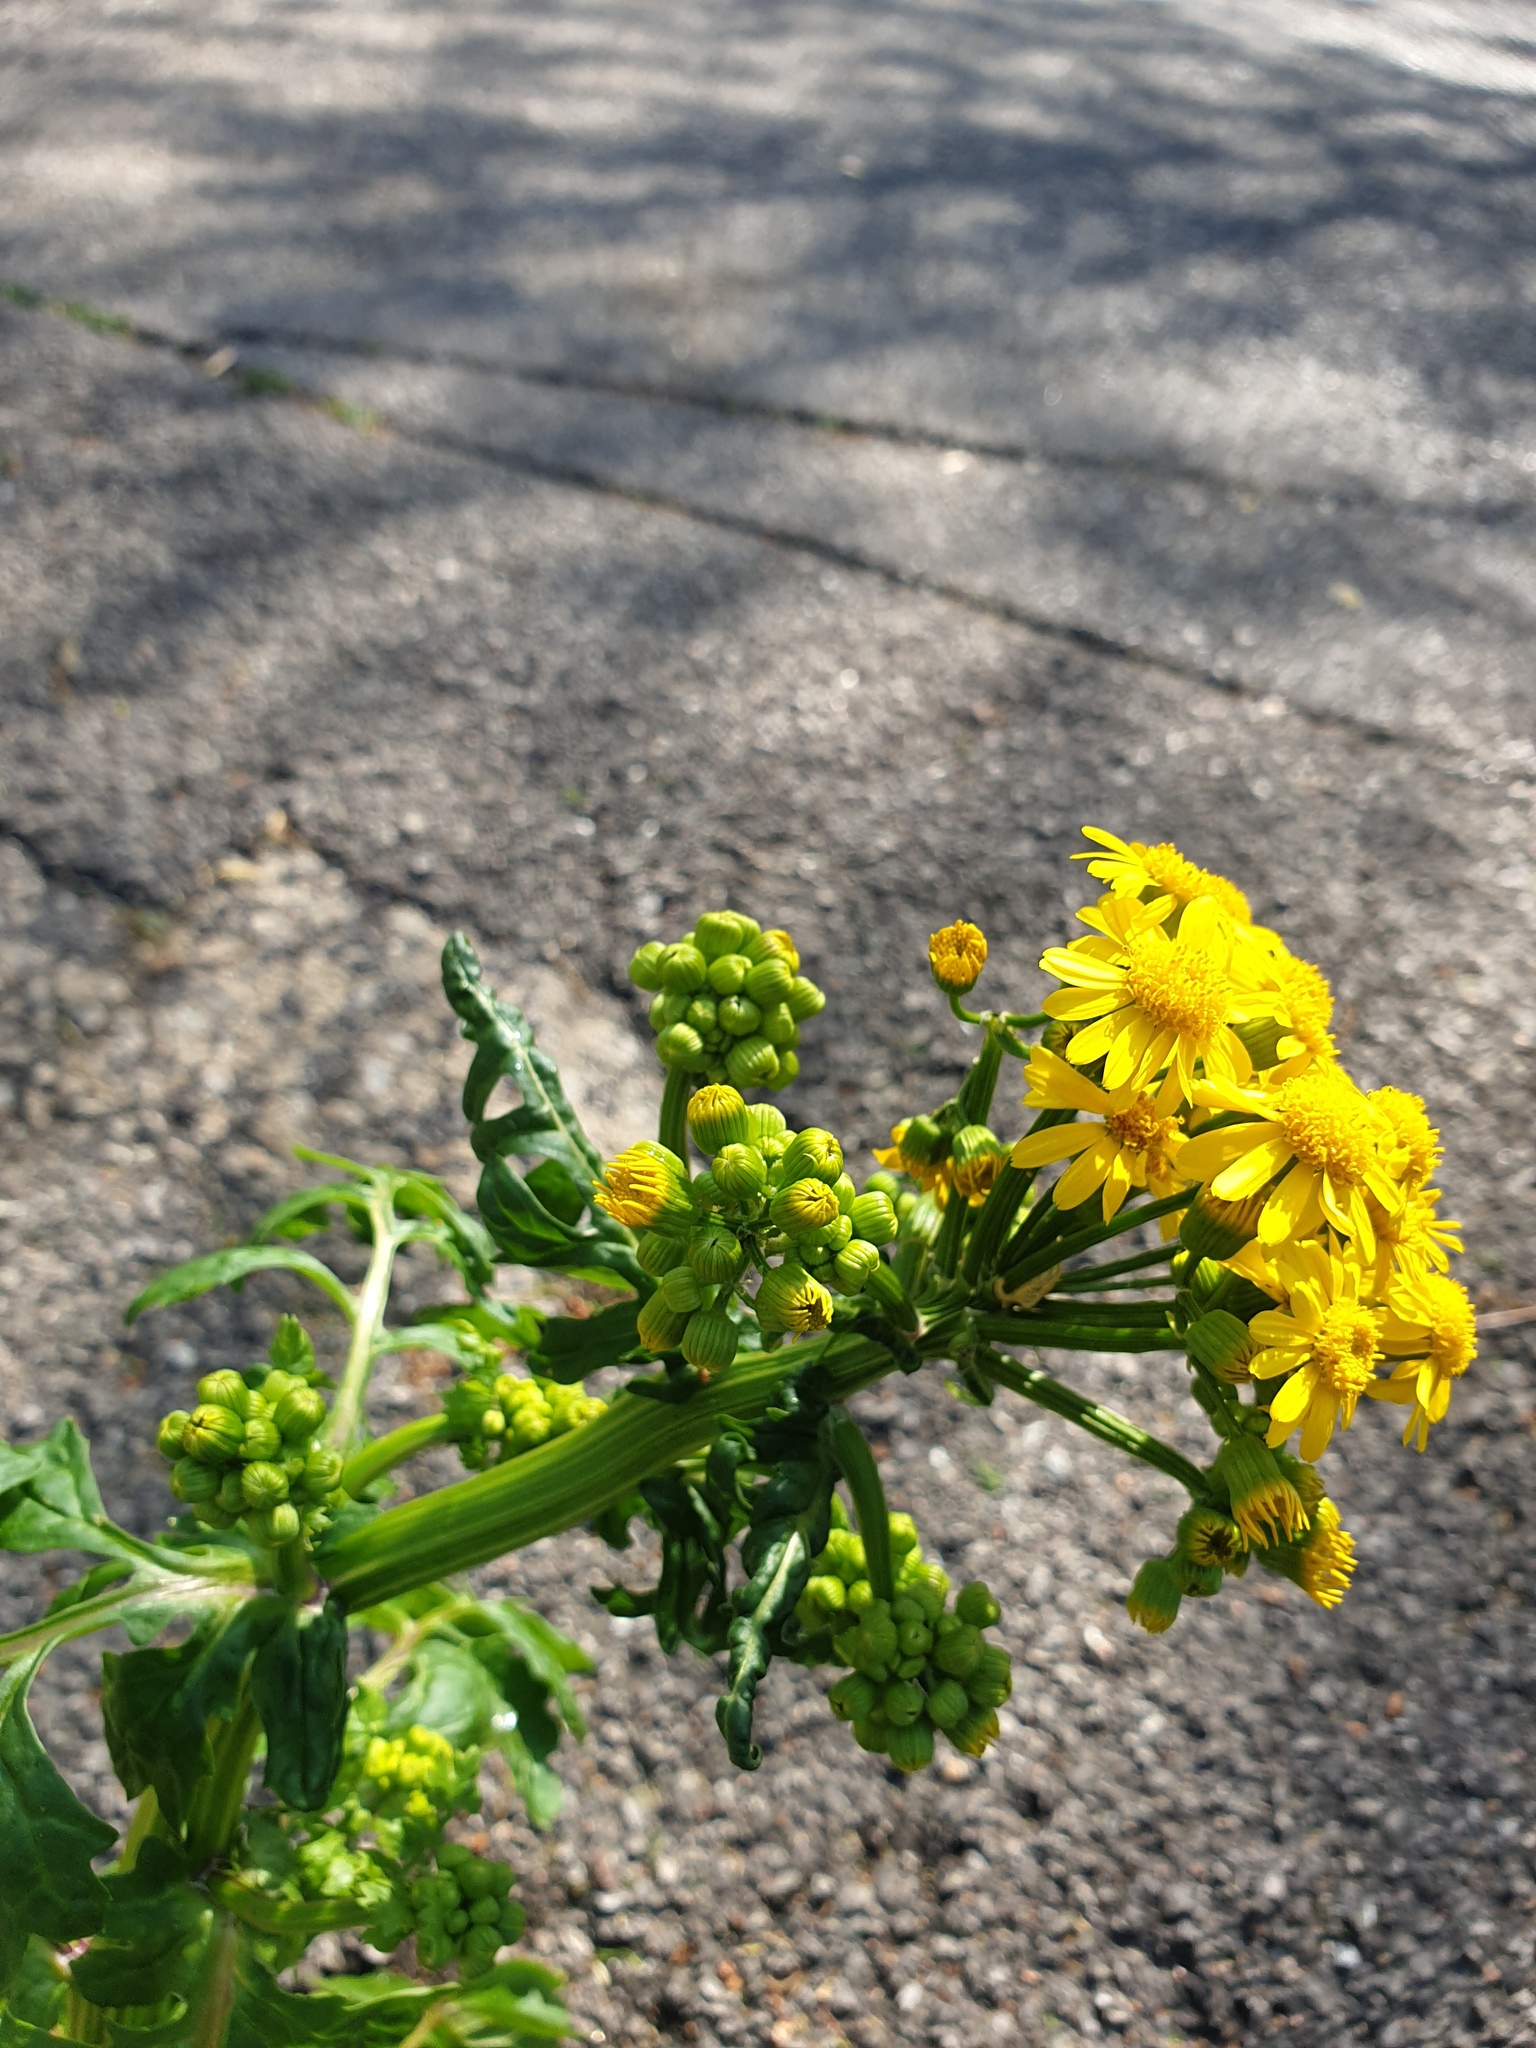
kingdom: Plantae
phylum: Tracheophyta
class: Magnoliopsida
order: Asterales
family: Asteraceae
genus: Packera
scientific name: Packera glabella
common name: Butterweed
